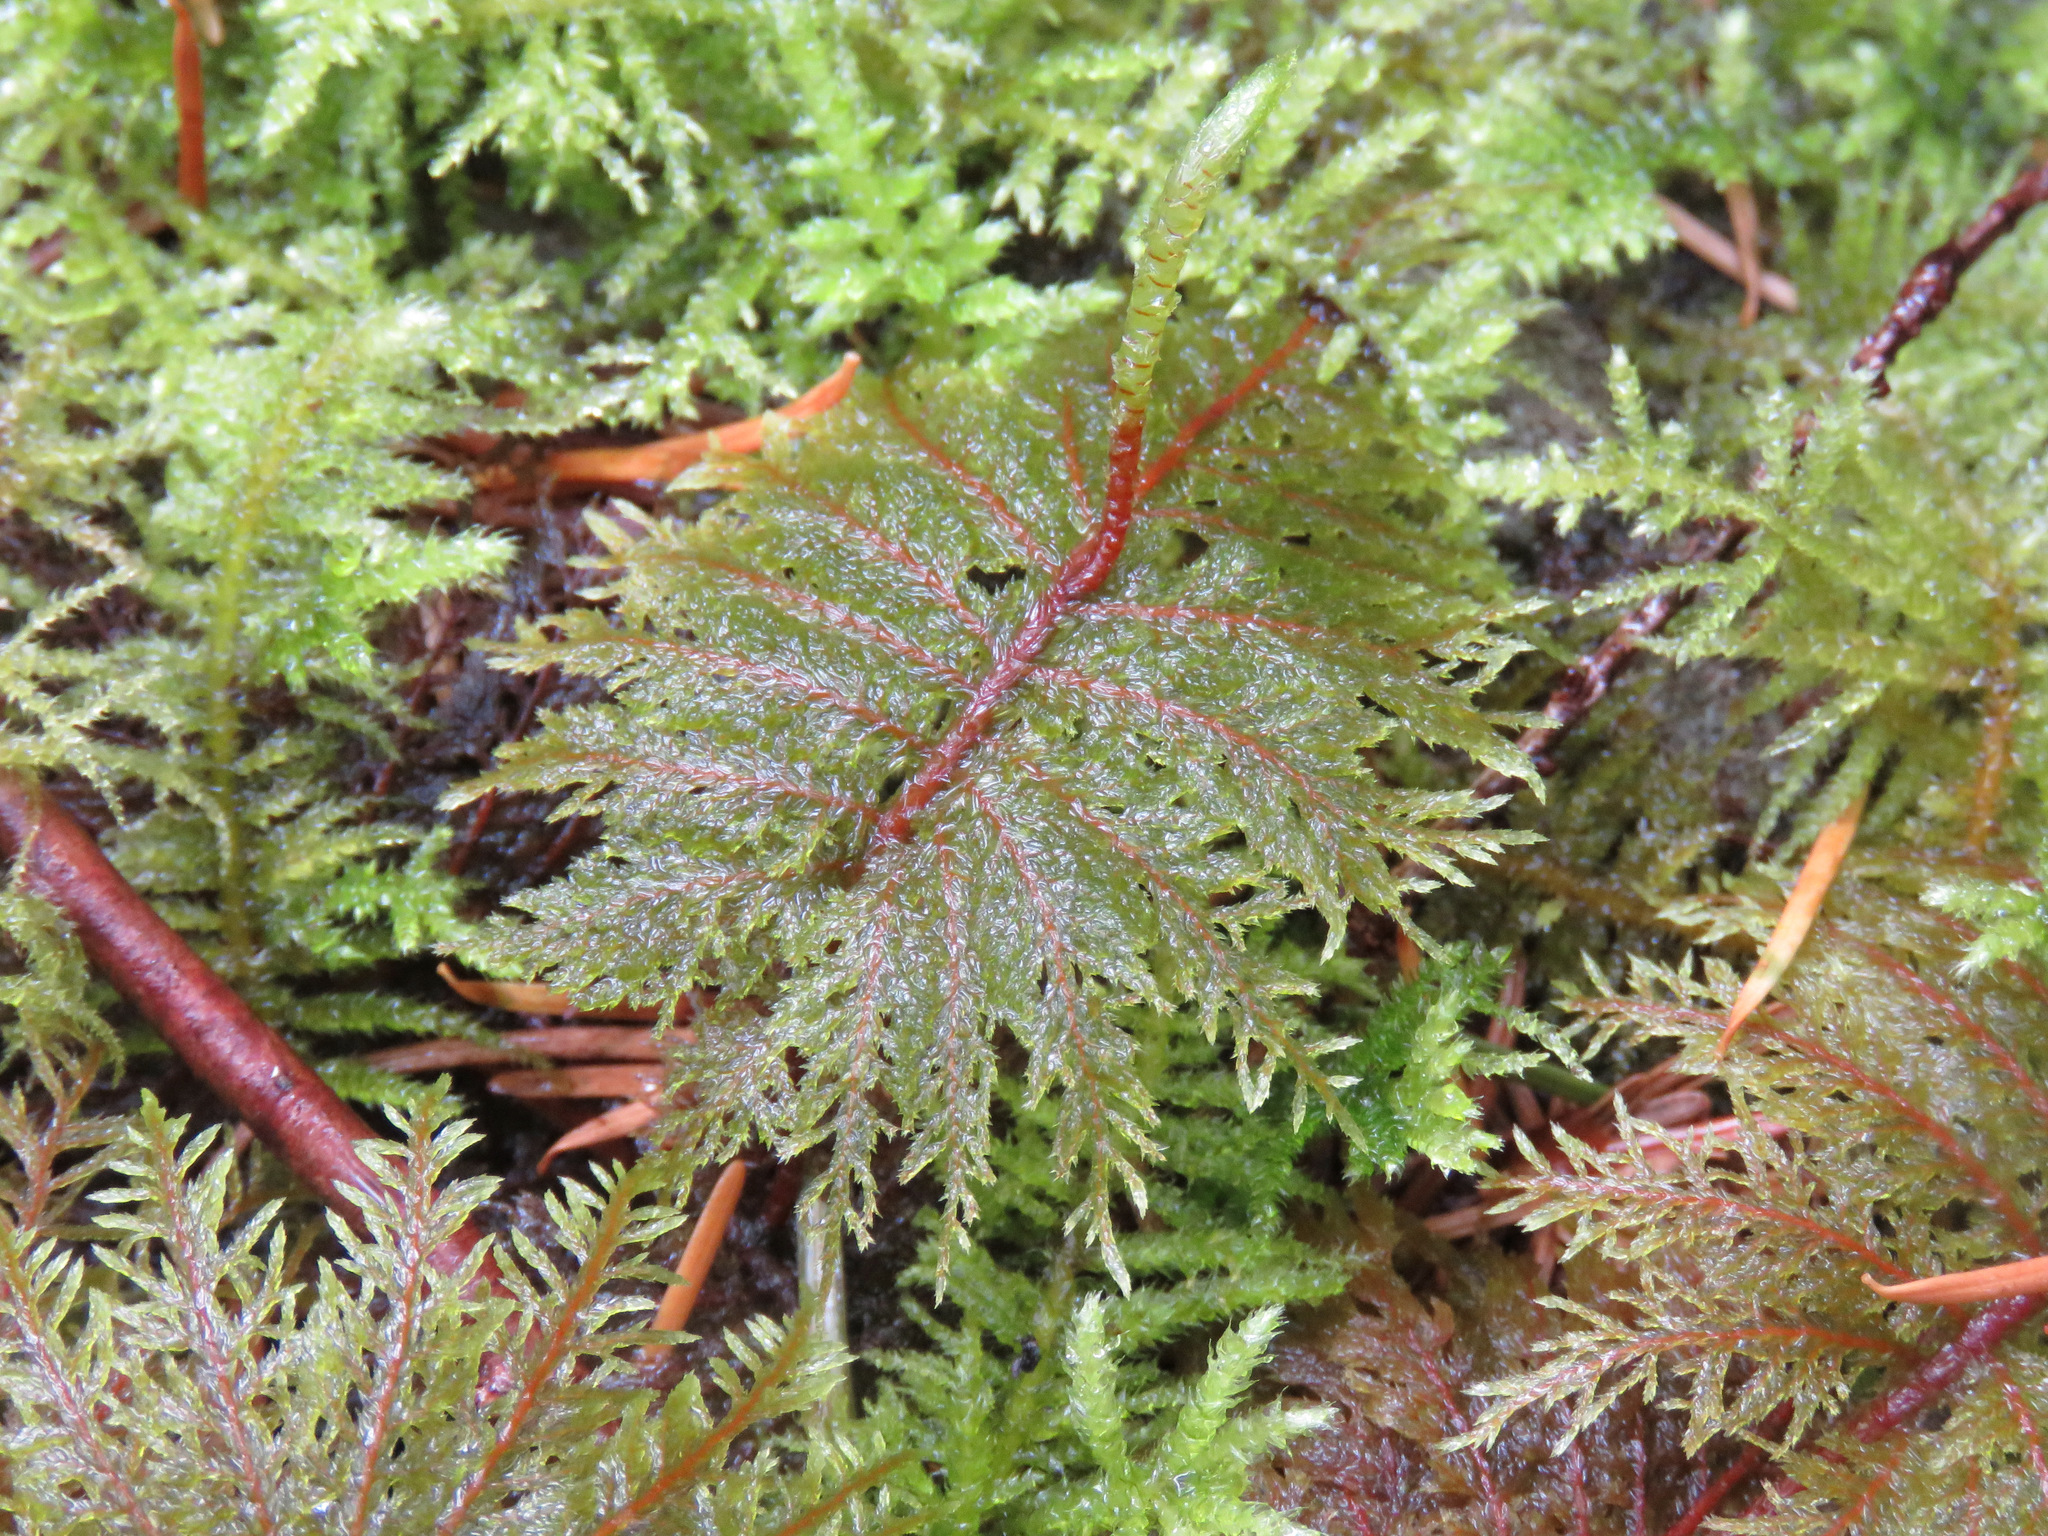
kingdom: Plantae
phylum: Bryophyta
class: Bryopsida
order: Hypnales
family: Hylocomiaceae
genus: Hylocomium
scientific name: Hylocomium splendens
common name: Stairstep moss
